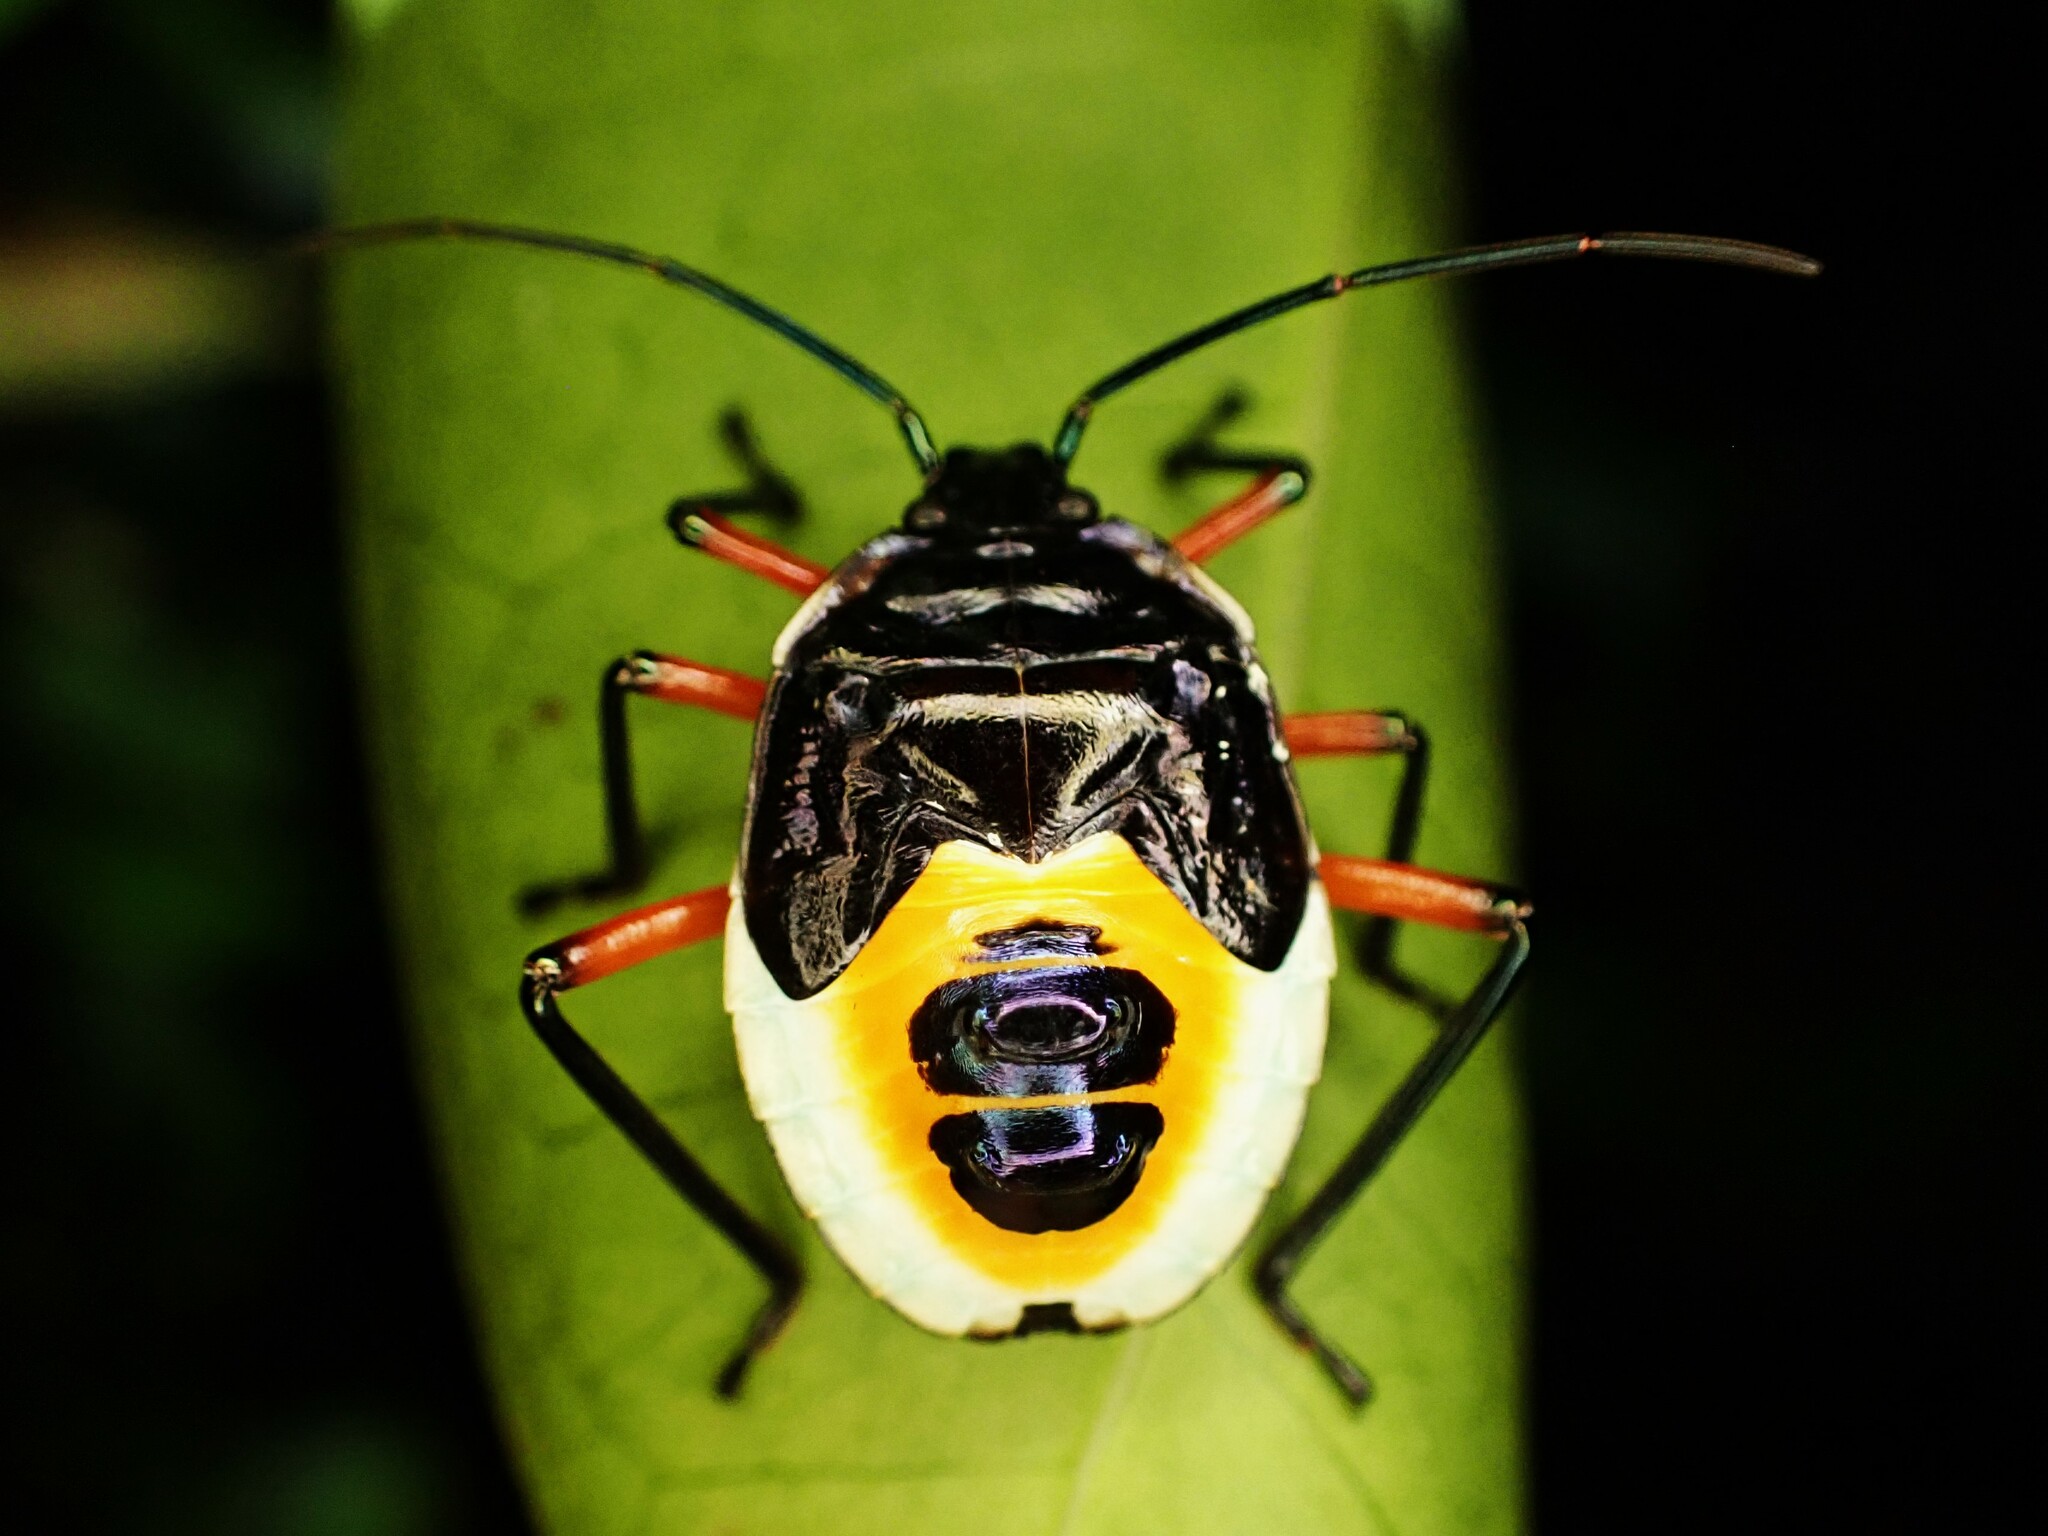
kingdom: Animalia
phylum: Arthropoda
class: Insecta
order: Hemiptera
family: Pentatomidae
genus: Catacanthus
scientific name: Catacanthus viridicatus
